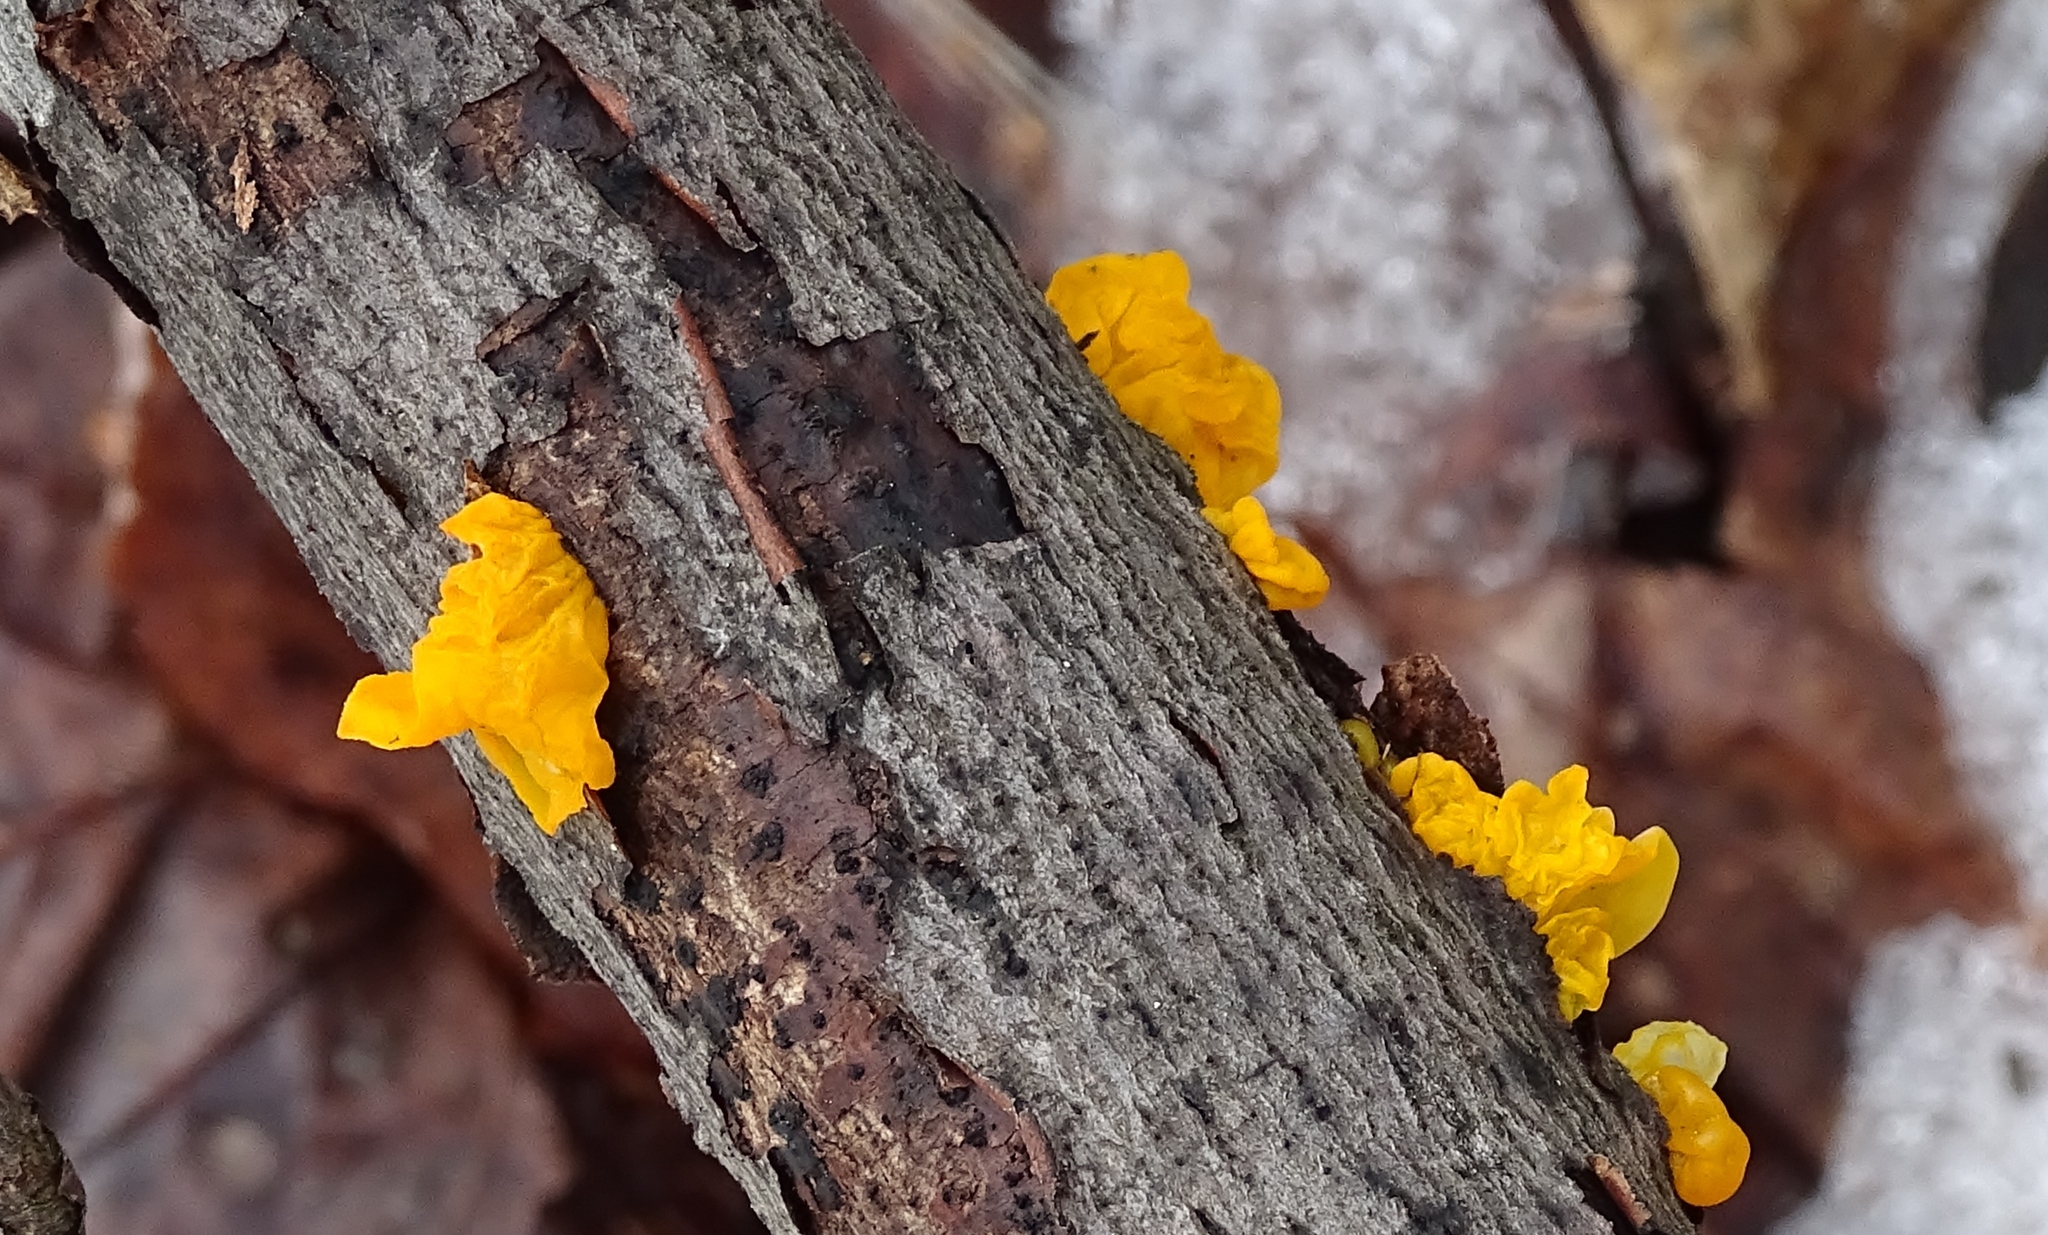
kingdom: Fungi
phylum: Basidiomycota
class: Tremellomycetes
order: Tremellales
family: Tremellaceae
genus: Tremella
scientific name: Tremella mesenterica
